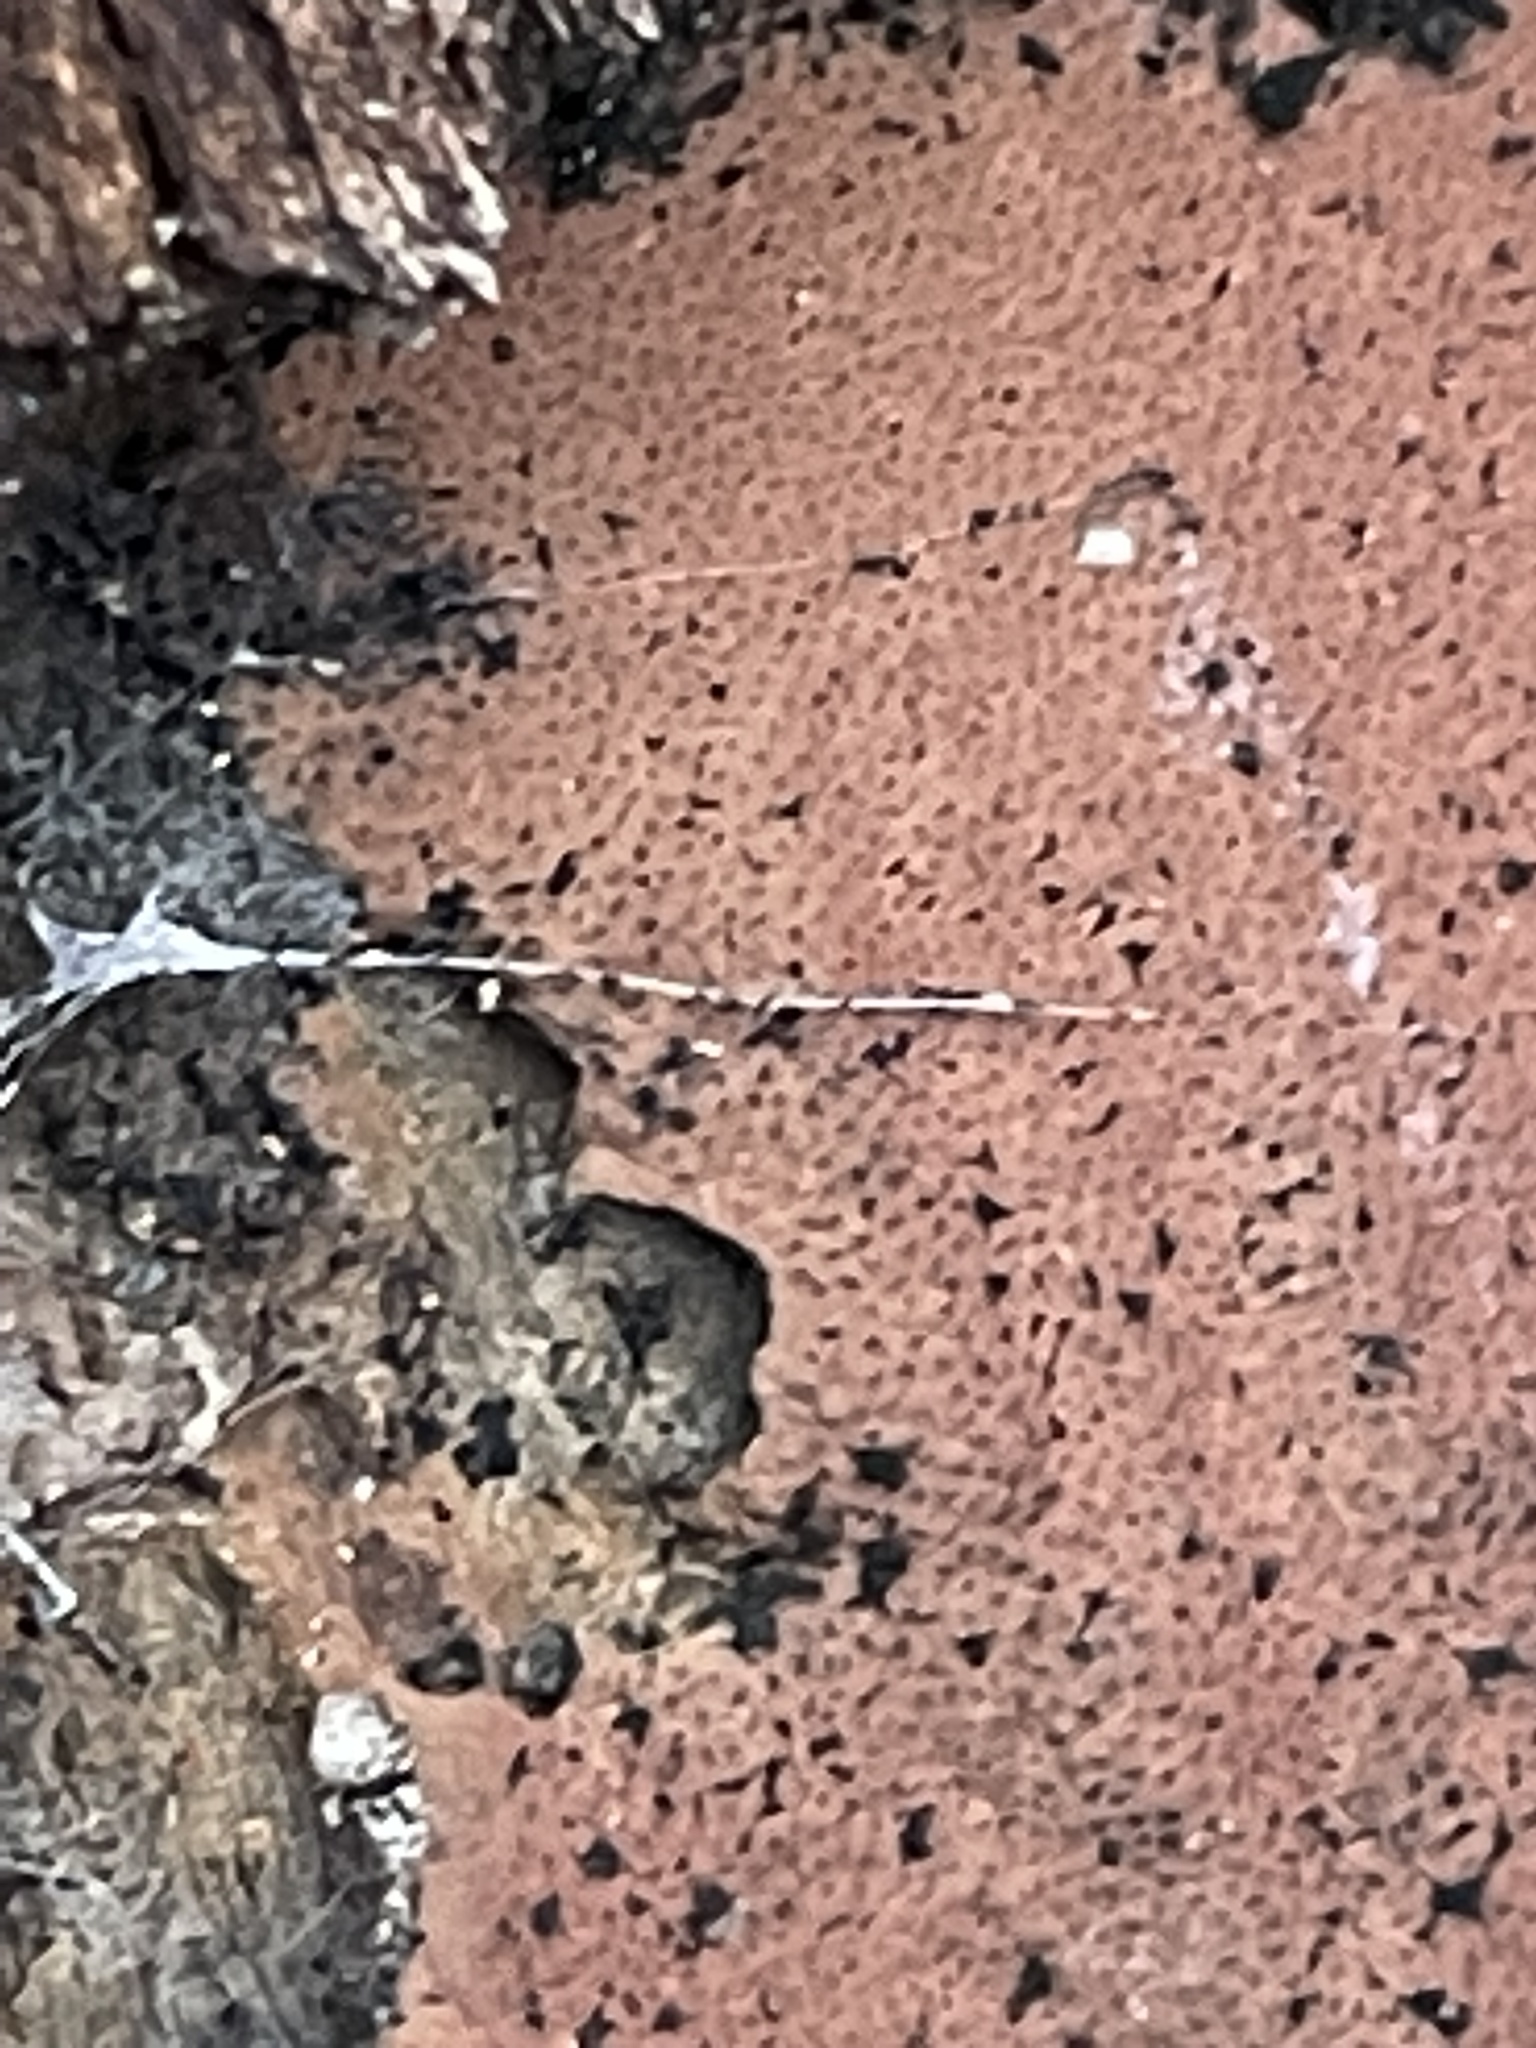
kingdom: Fungi
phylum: Ascomycota
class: Sordariomycetes
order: Xylariales
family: Hypoxylaceae
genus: Hypoxylon
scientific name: Hypoxylon rubiginosum
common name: Rusty woodwart
